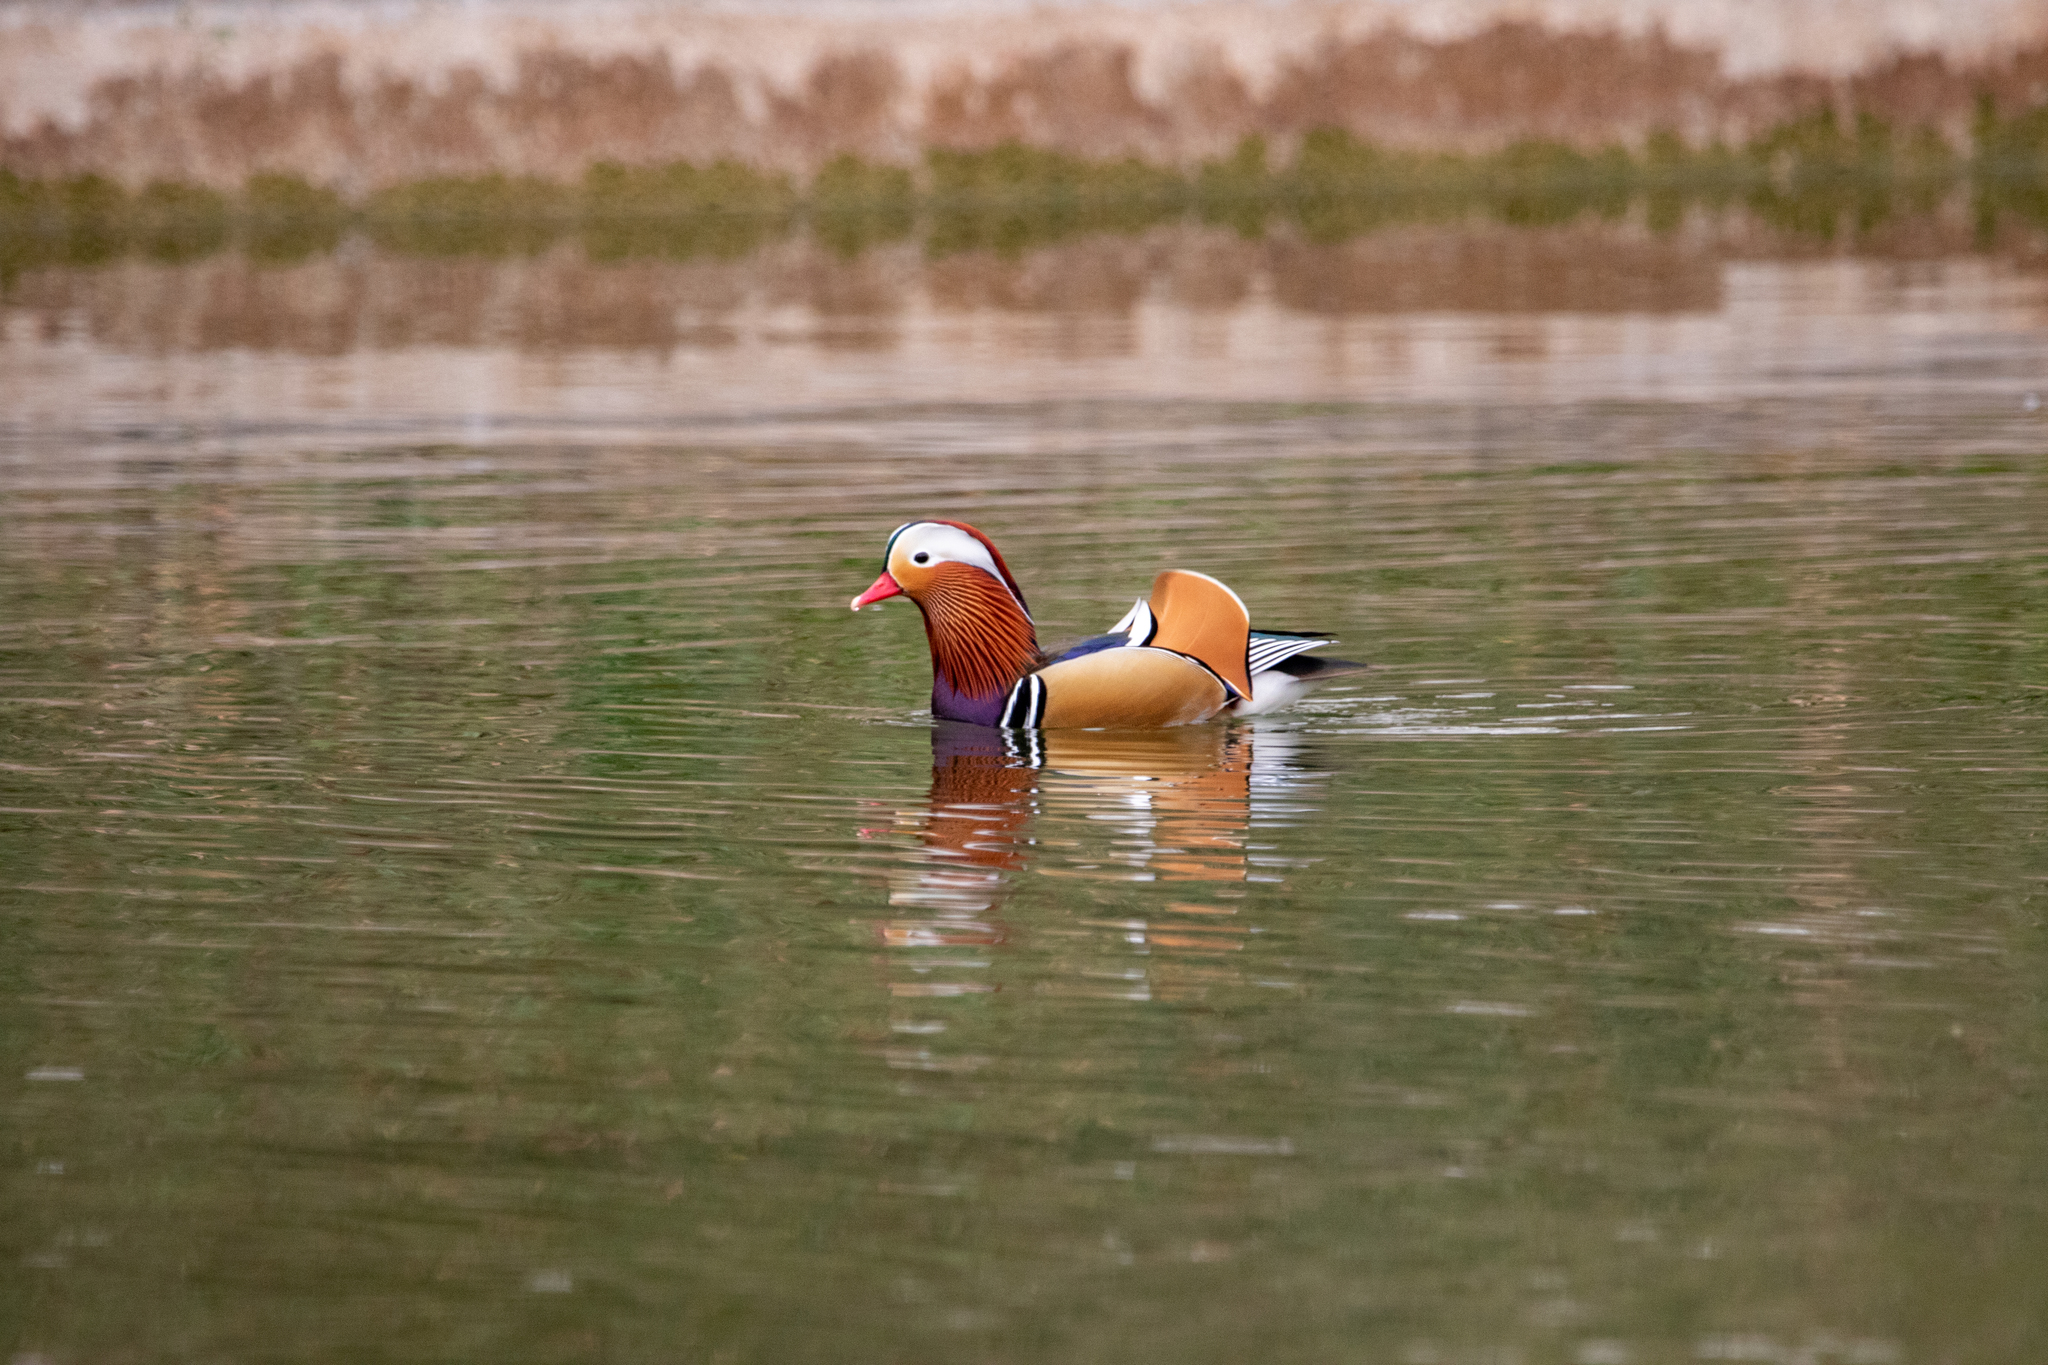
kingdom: Animalia
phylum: Chordata
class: Aves
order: Anseriformes
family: Anatidae
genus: Aix
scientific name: Aix galericulata
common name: Mandarin duck
